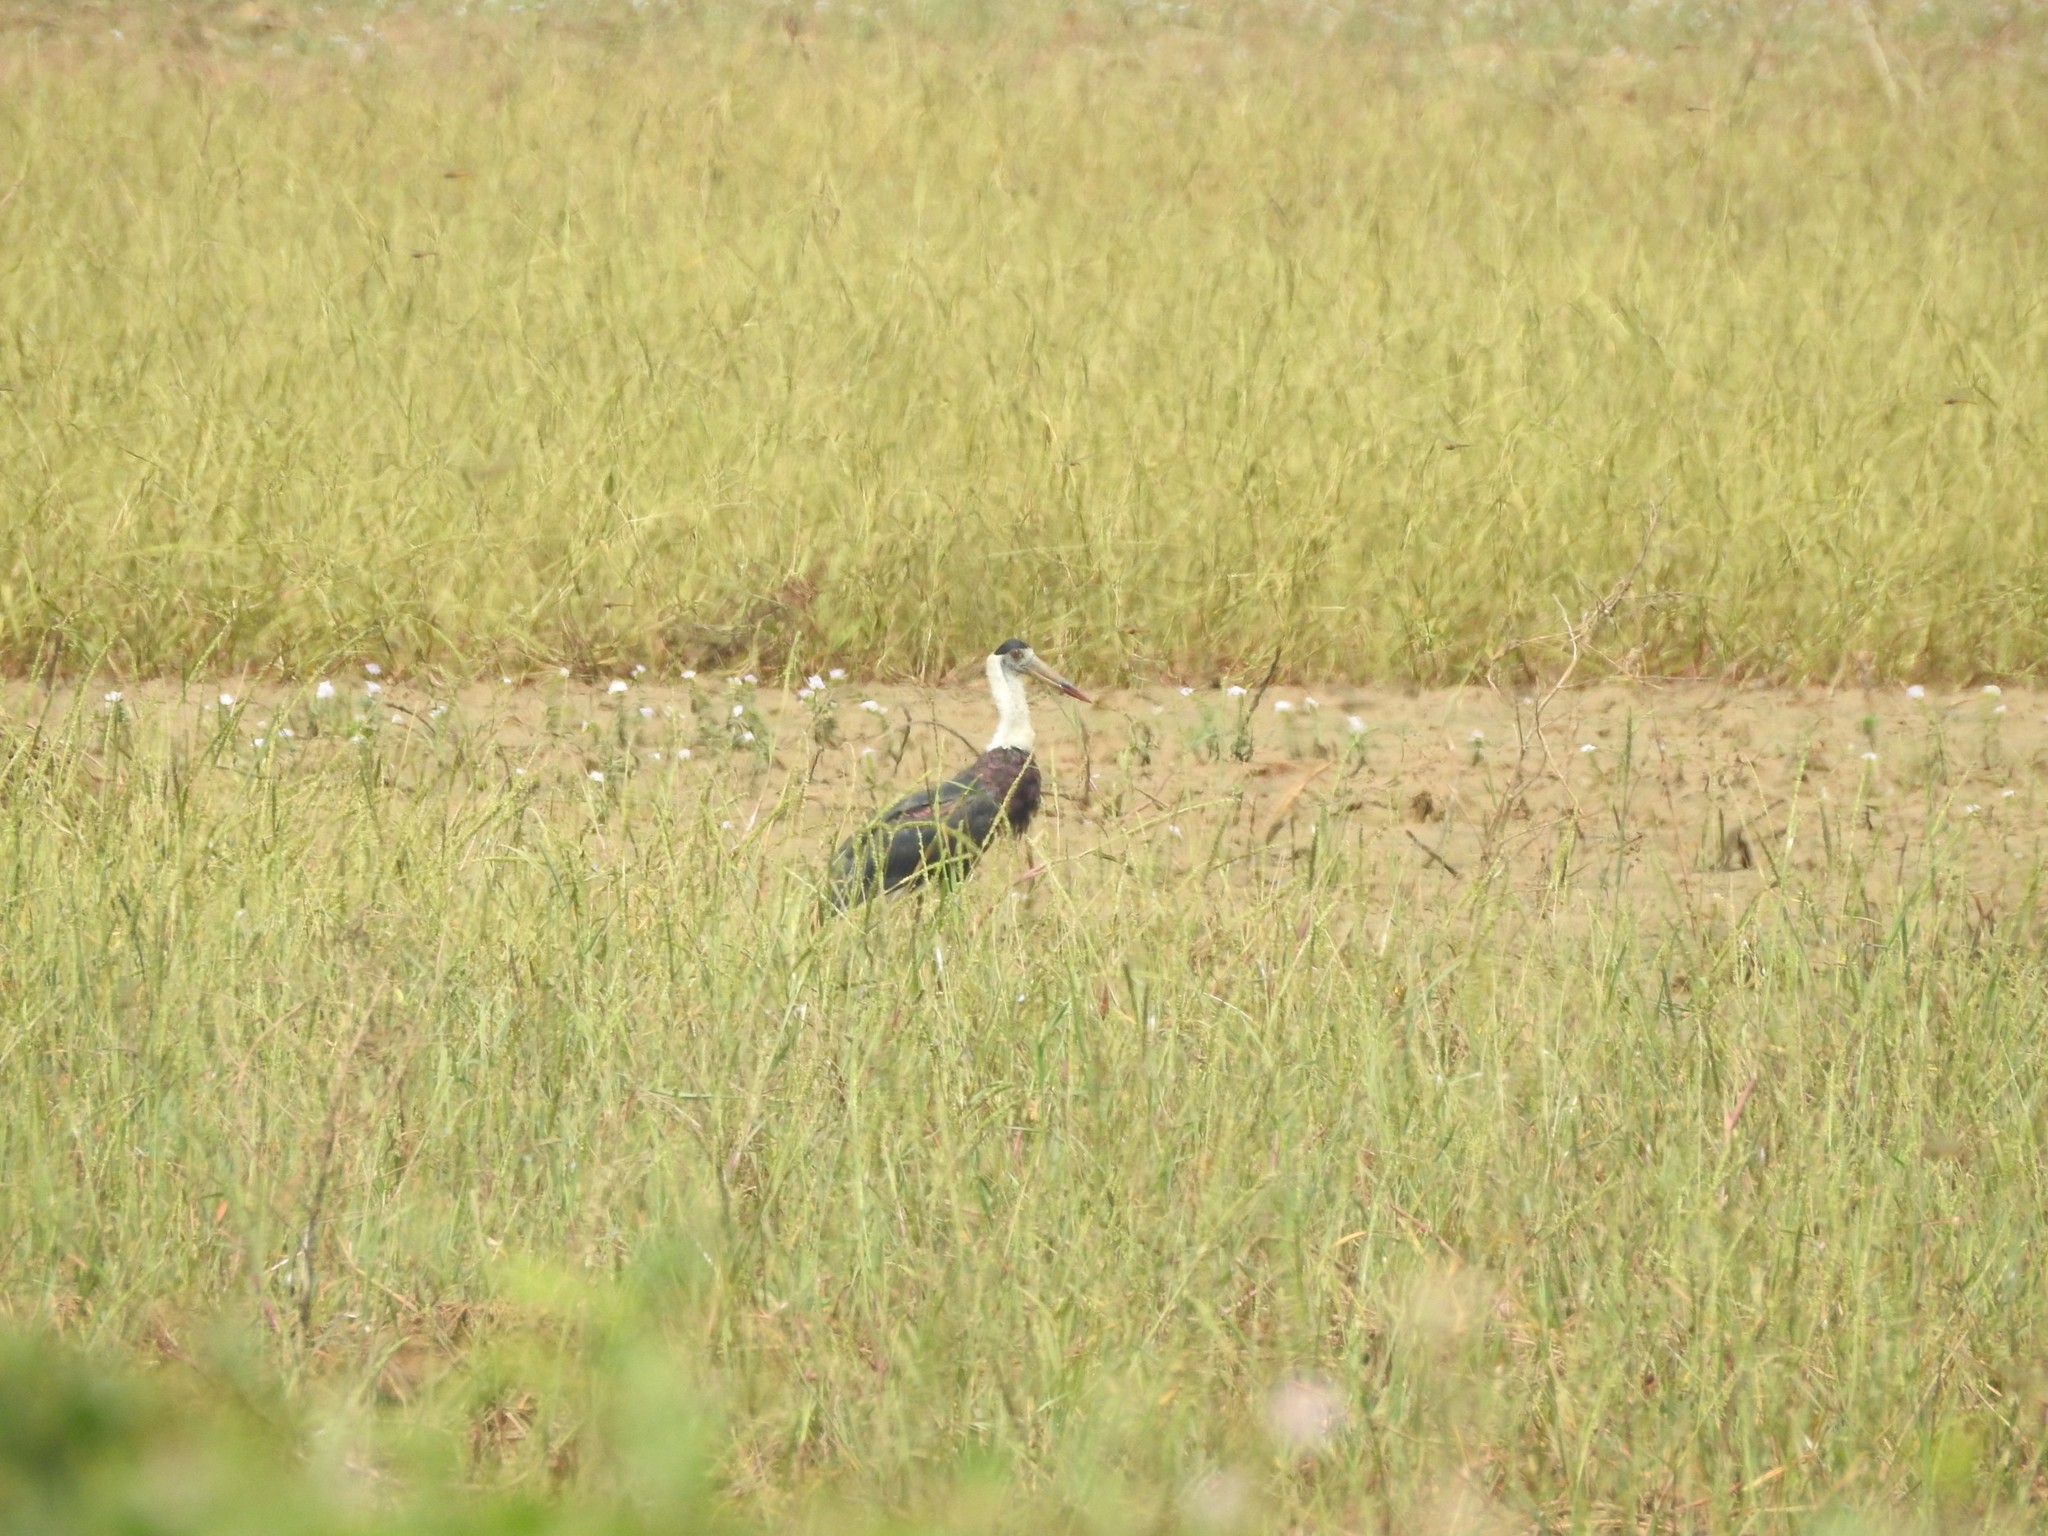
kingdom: Animalia
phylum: Chordata
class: Aves
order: Ciconiiformes
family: Ciconiidae
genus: Ciconia
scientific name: Ciconia episcopus
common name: Woolly-necked stork
